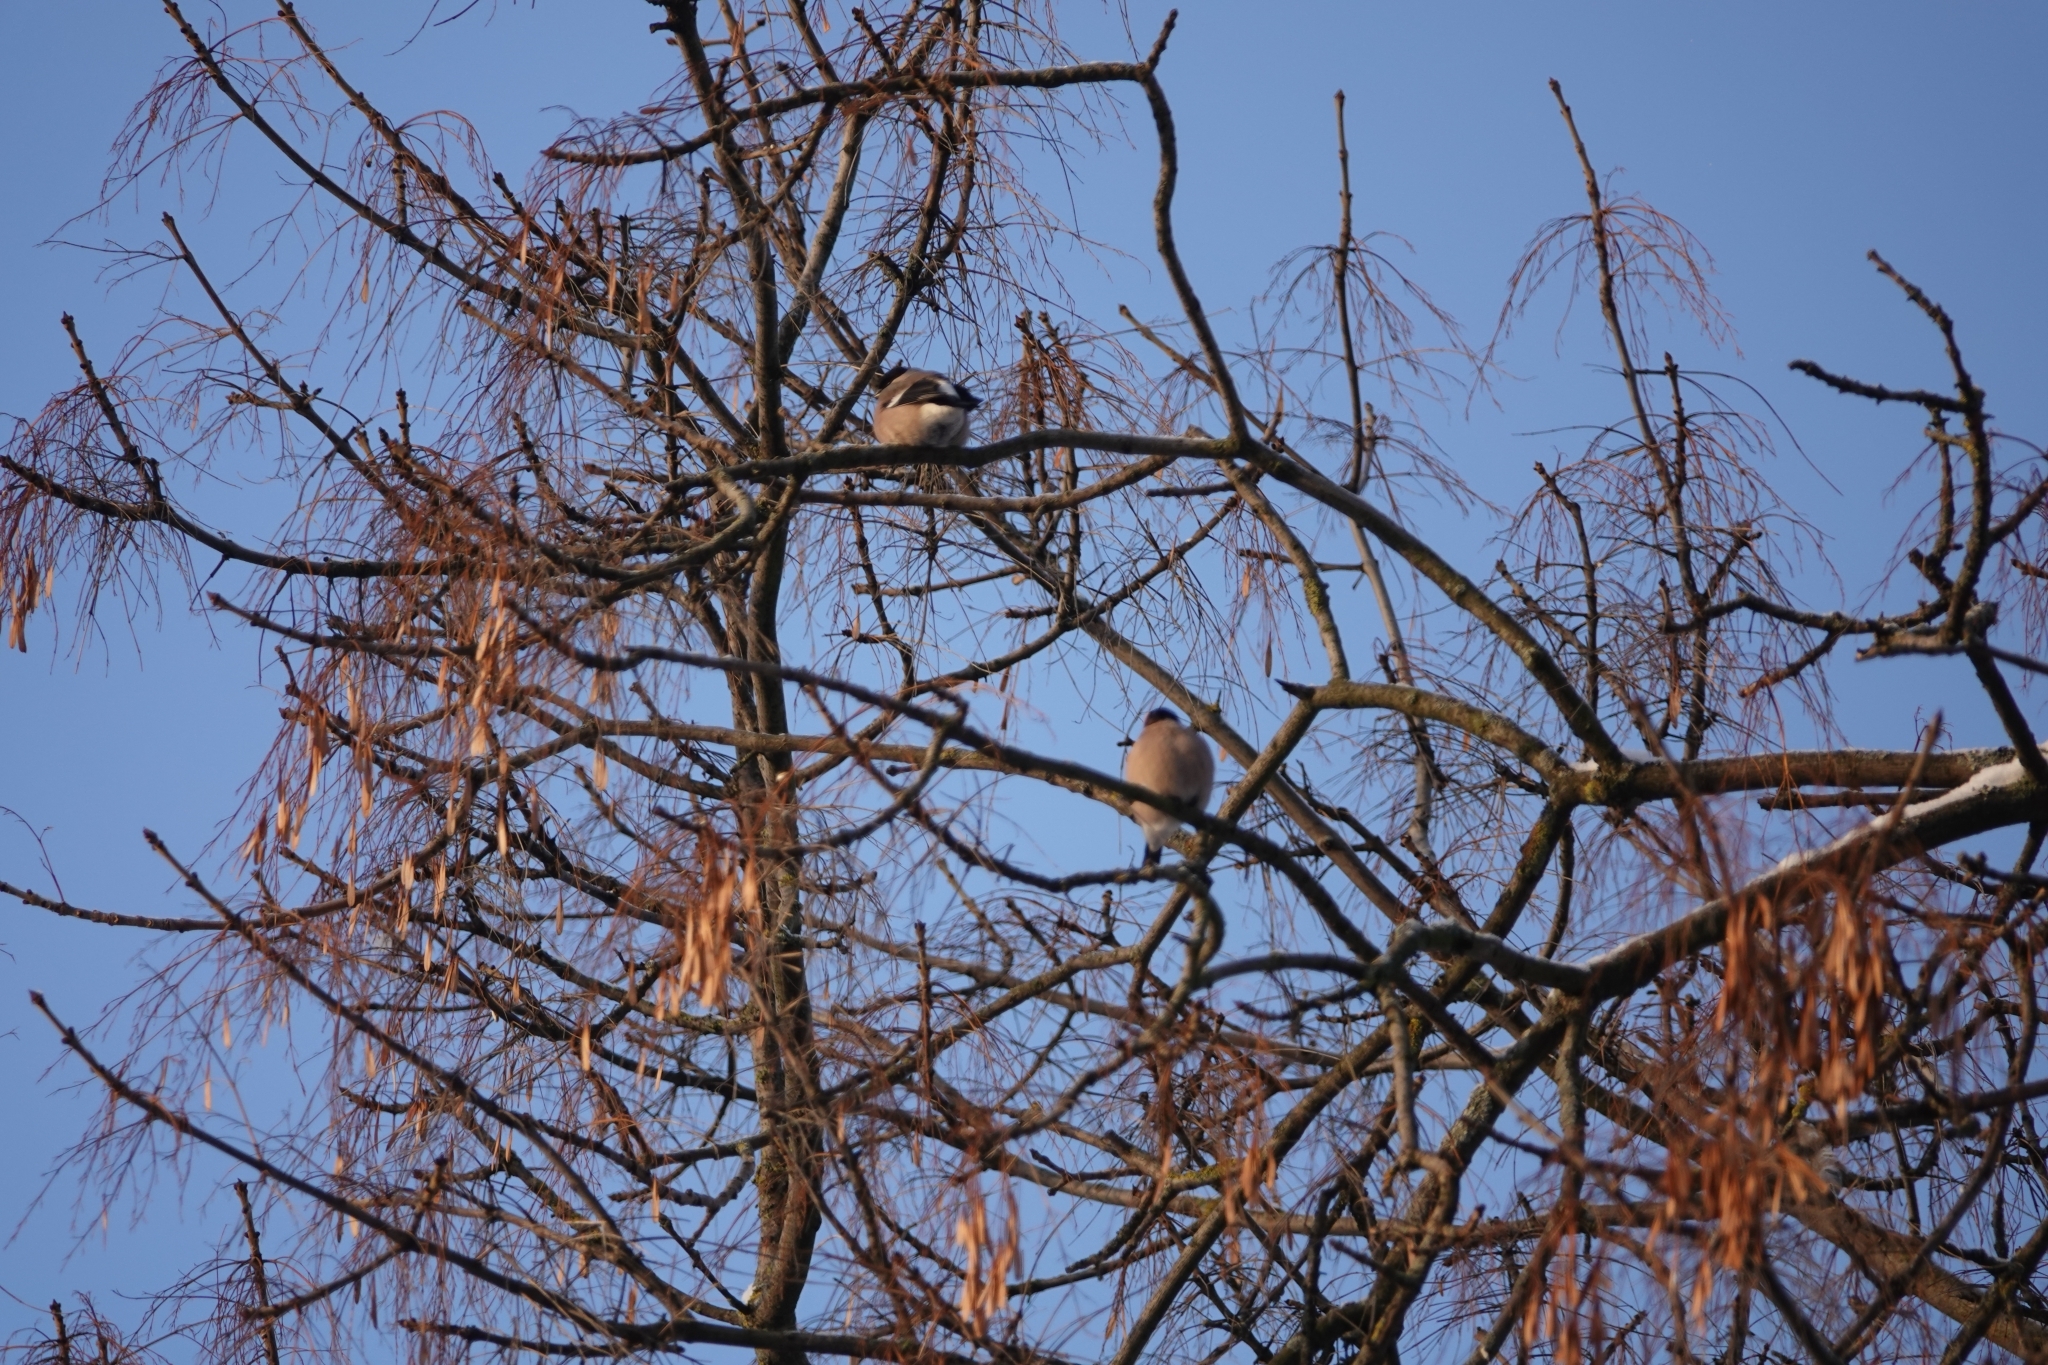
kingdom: Animalia
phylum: Chordata
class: Aves
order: Passeriformes
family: Fringillidae
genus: Pyrrhula
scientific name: Pyrrhula pyrrhula
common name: Eurasian bullfinch
